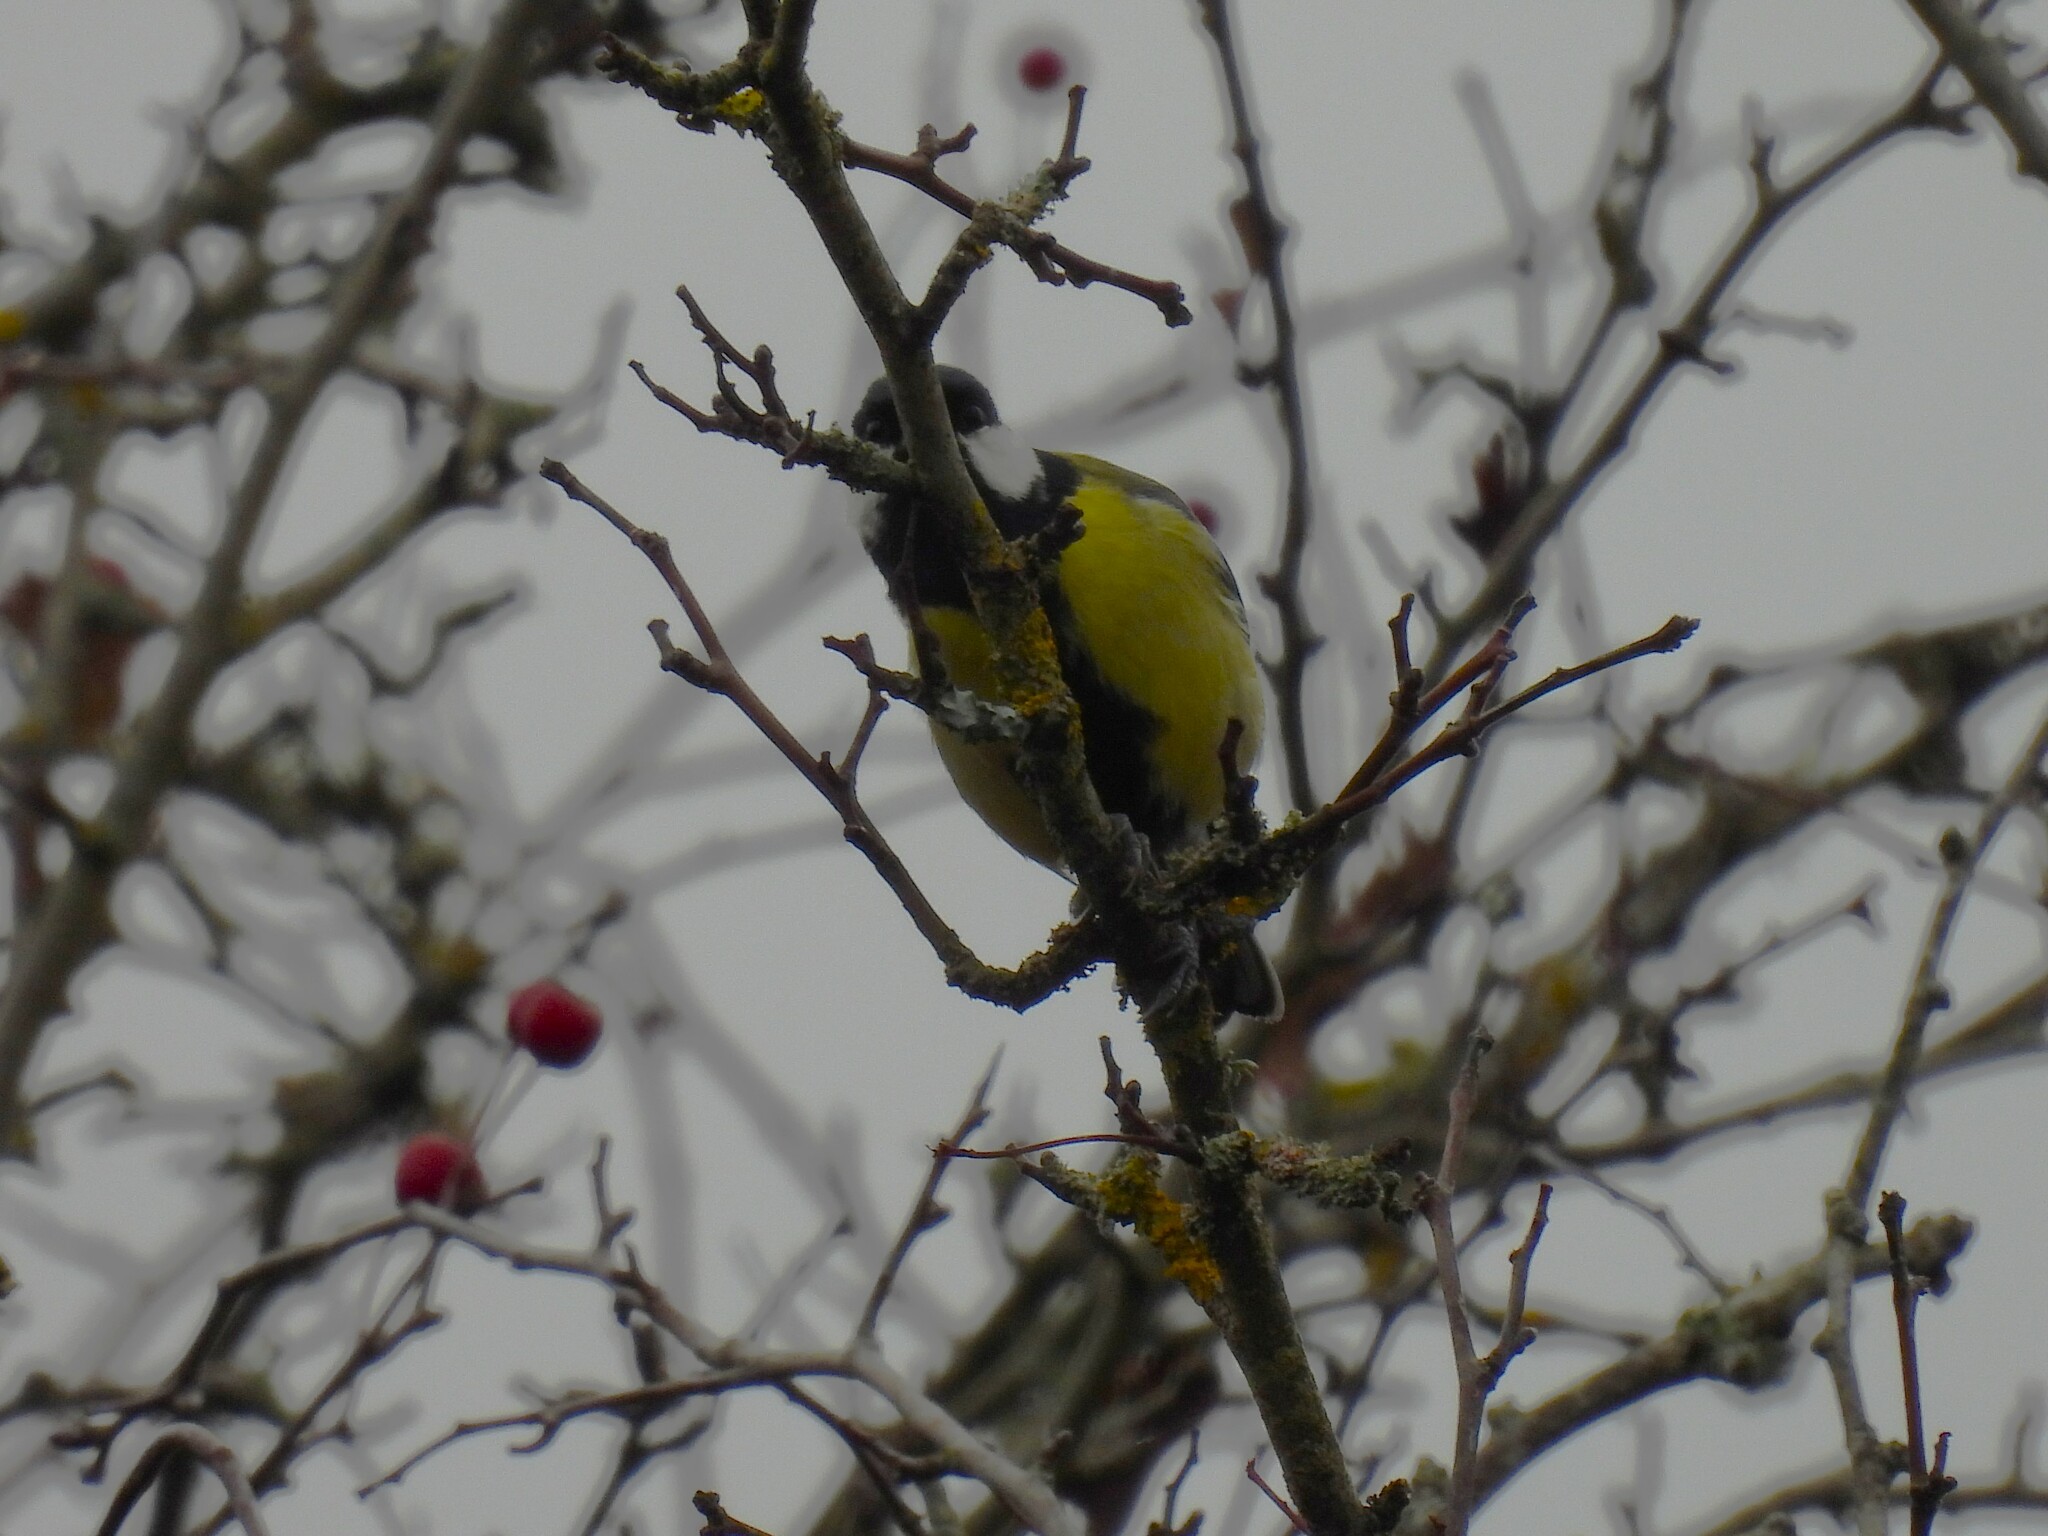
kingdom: Animalia
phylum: Chordata
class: Aves
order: Passeriformes
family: Paridae
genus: Parus
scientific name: Parus major
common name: Great tit
